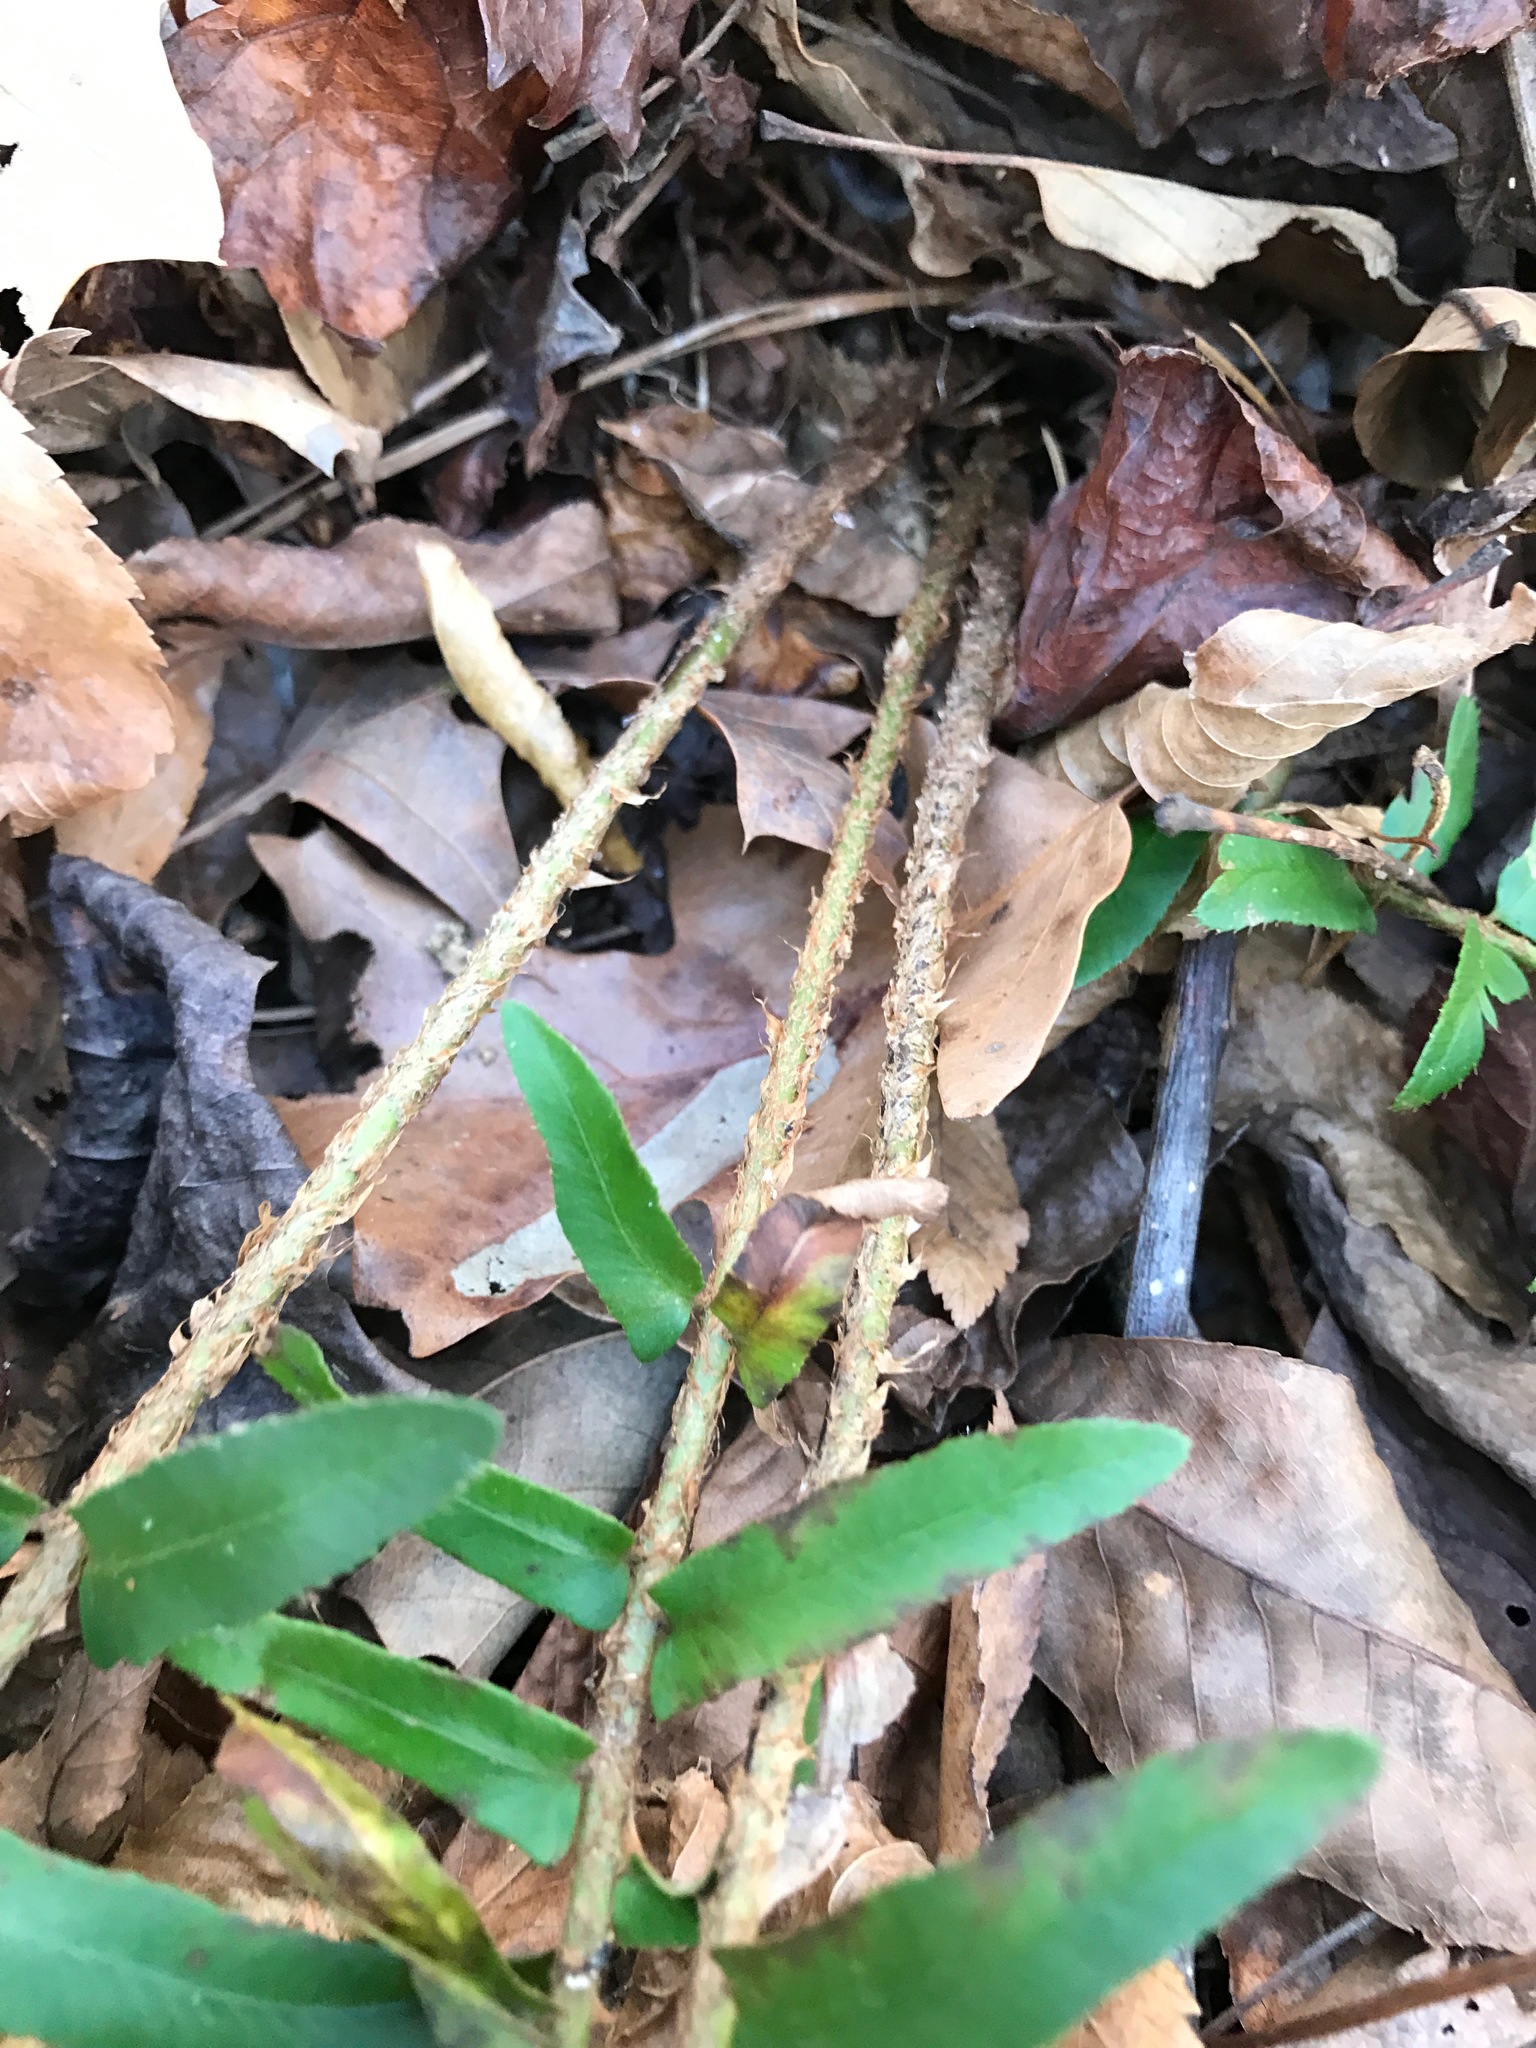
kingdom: Plantae
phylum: Tracheophyta
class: Polypodiopsida
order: Polypodiales
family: Dryopteridaceae
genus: Polystichum
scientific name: Polystichum acrostichoides
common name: Christmas fern
